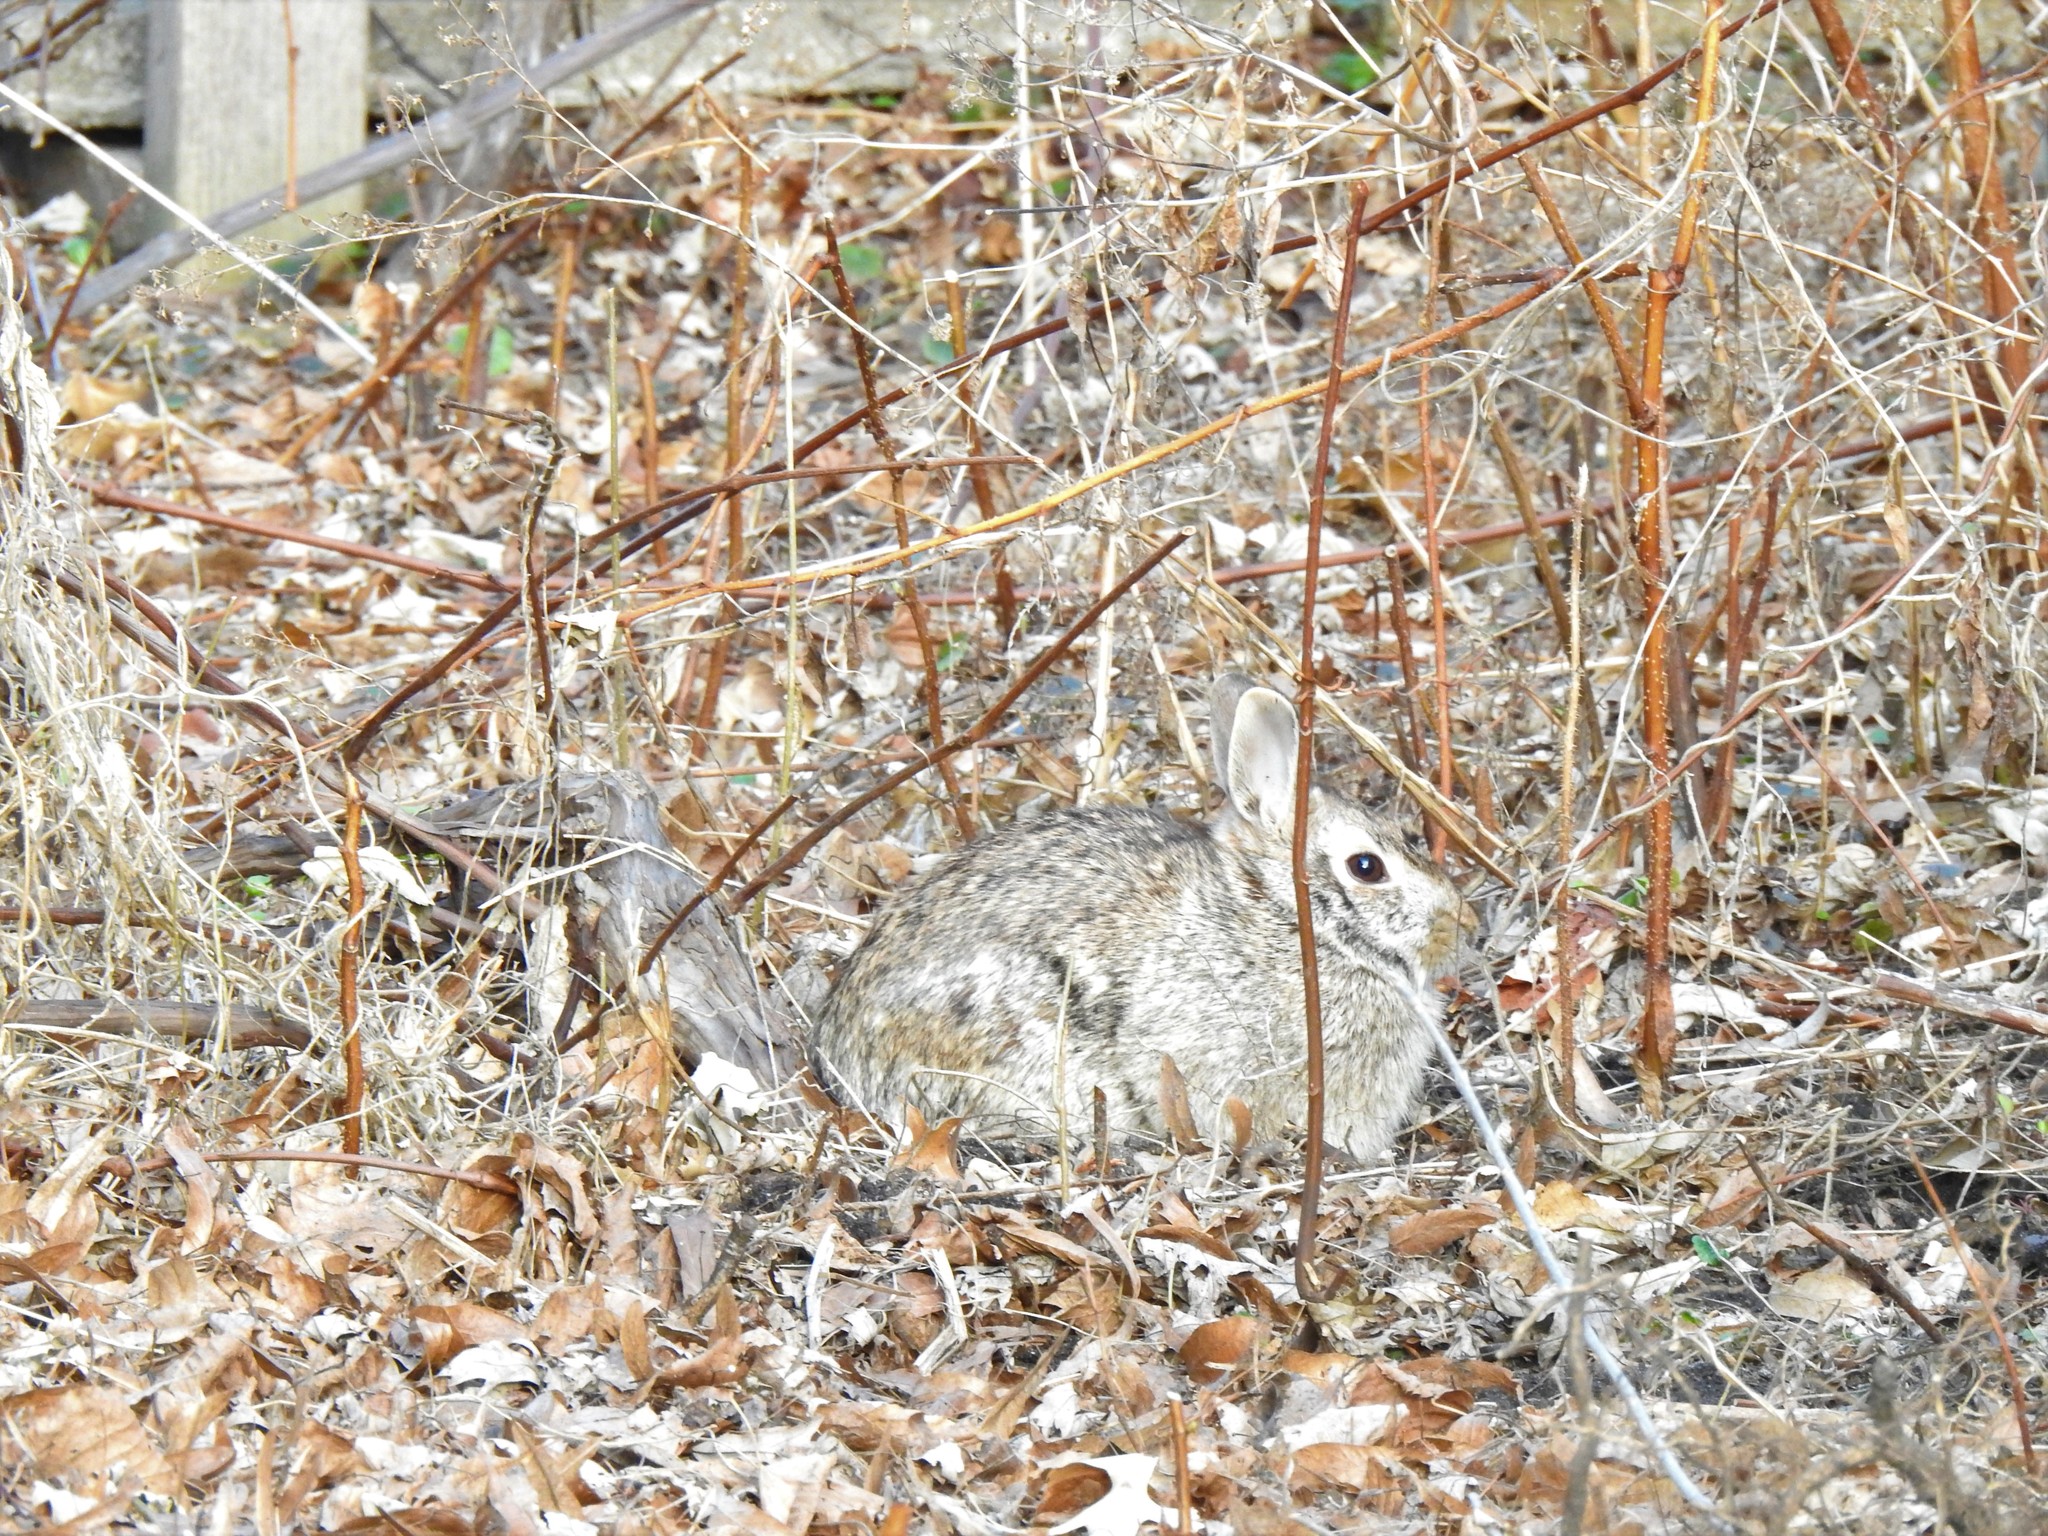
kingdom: Animalia
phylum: Chordata
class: Mammalia
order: Lagomorpha
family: Leporidae
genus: Sylvilagus
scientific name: Sylvilagus floridanus
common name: Eastern cottontail
